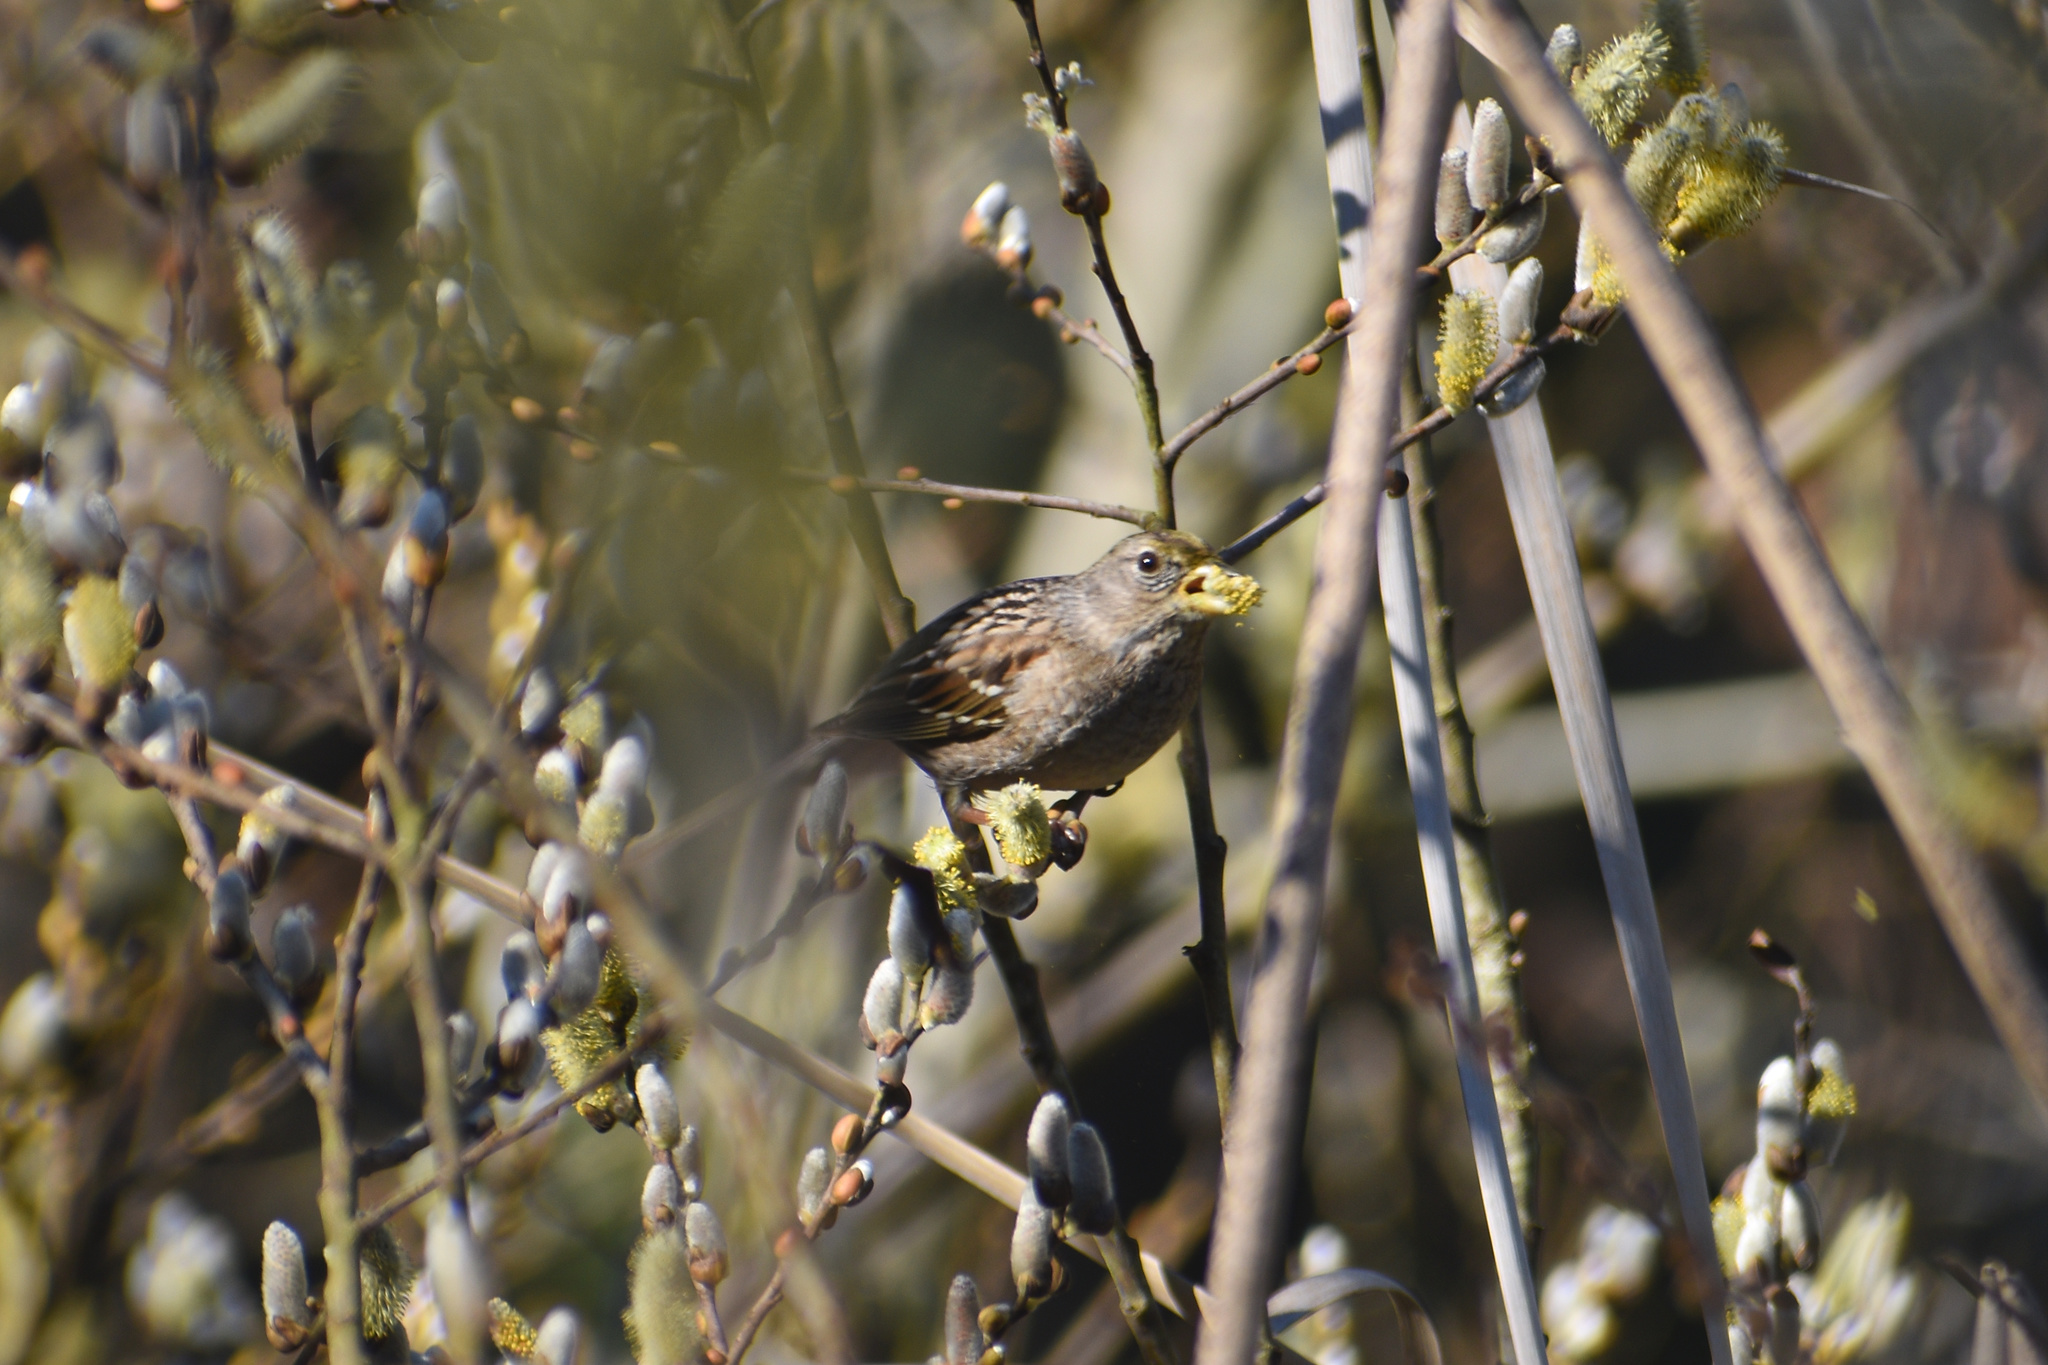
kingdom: Animalia
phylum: Chordata
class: Aves
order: Passeriformes
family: Passerellidae
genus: Zonotrichia
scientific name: Zonotrichia atricapilla
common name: Golden-crowned sparrow
